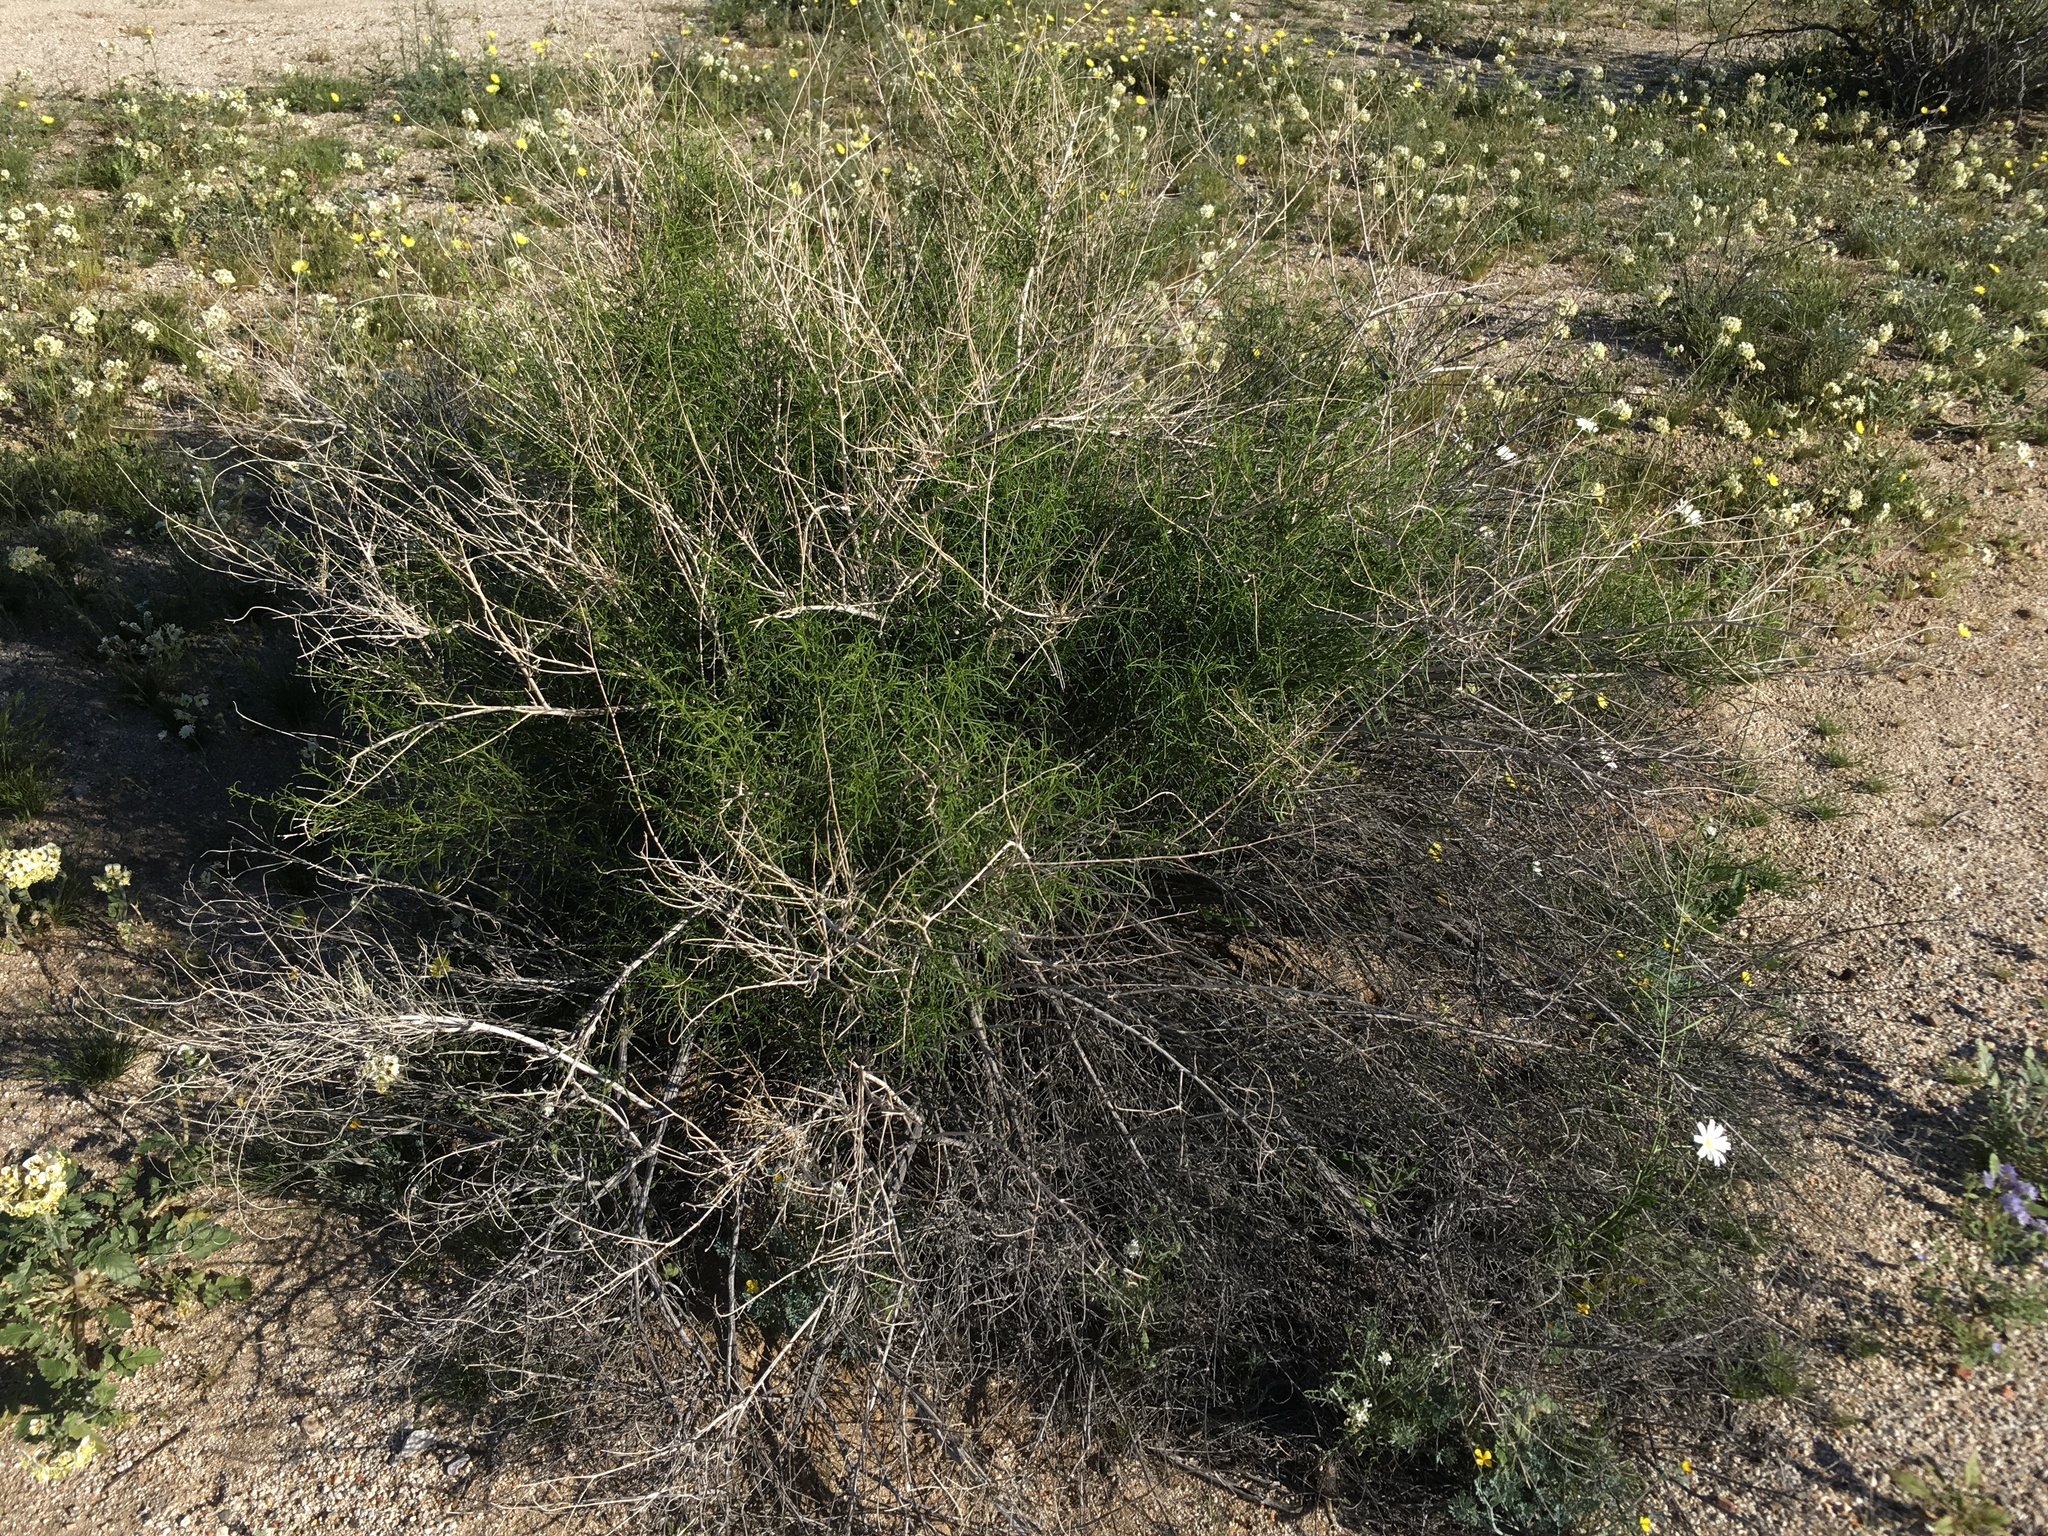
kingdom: Plantae
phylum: Tracheophyta
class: Magnoliopsida
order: Asterales
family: Asteraceae
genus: Ambrosia
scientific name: Ambrosia salsola
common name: Burrobrush
